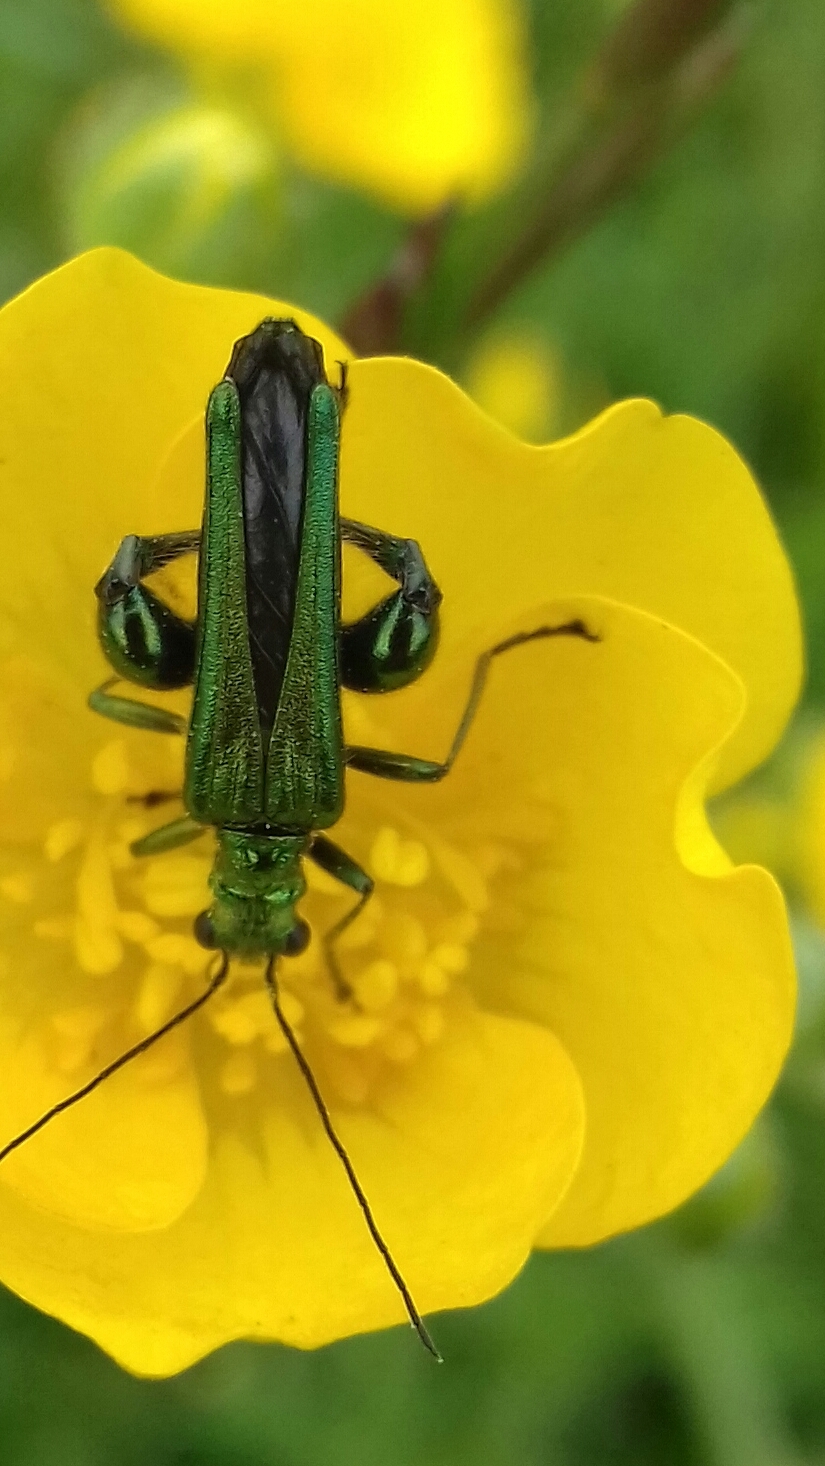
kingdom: Animalia
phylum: Arthropoda
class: Insecta
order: Coleoptera
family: Oedemeridae
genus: Oedemera
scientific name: Oedemera nobilis
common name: Swollen-thighed beetle
